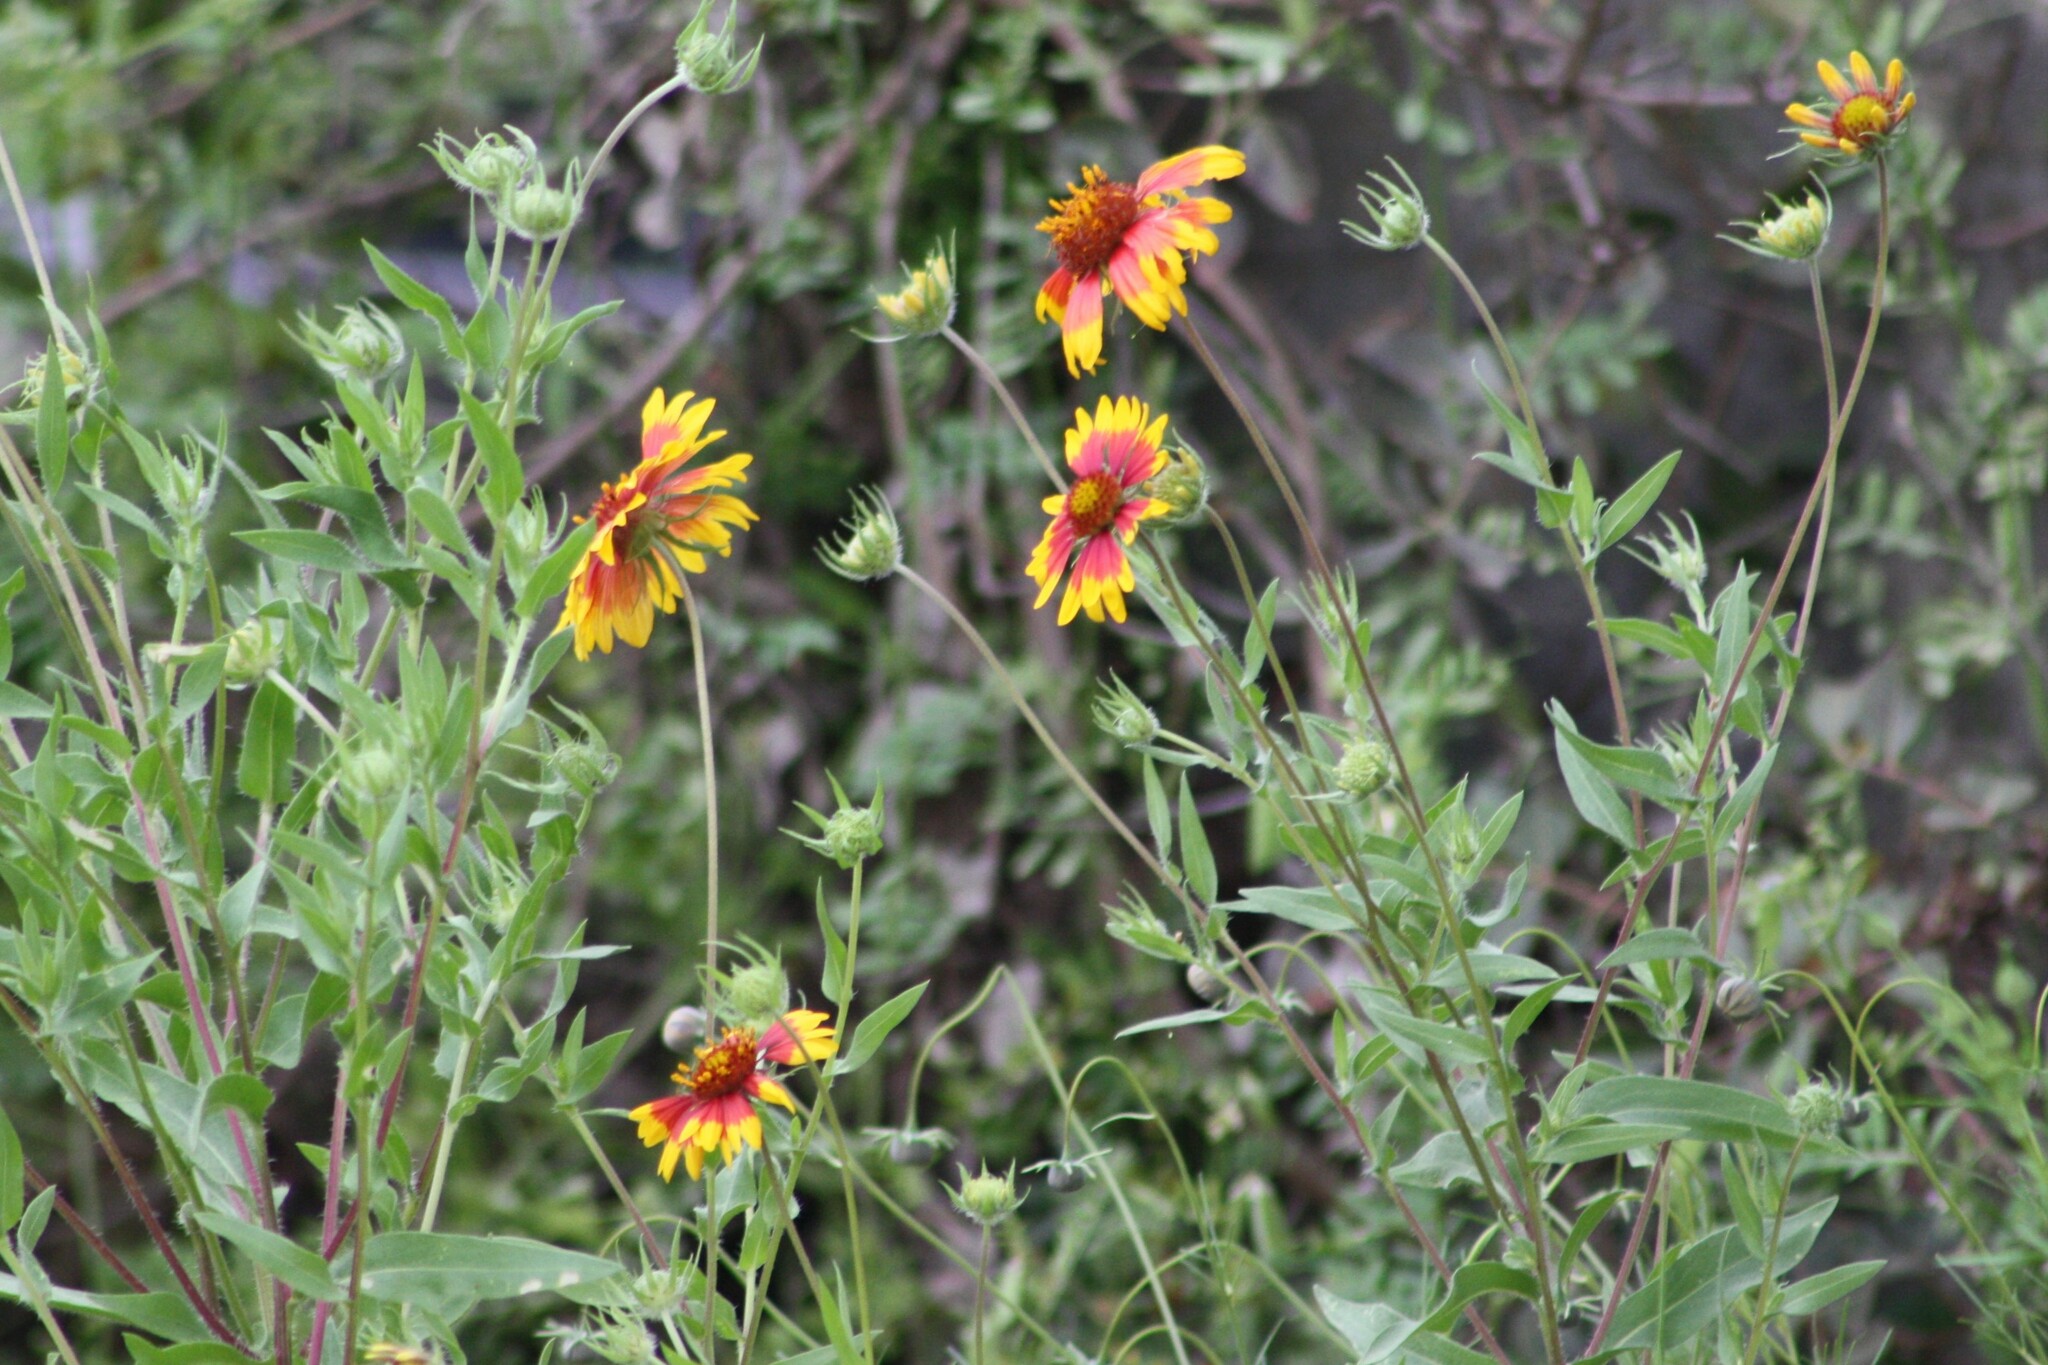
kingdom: Plantae
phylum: Tracheophyta
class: Magnoliopsida
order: Asterales
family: Asteraceae
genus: Gaillardia
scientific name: Gaillardia pulchella
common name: Firewheel
